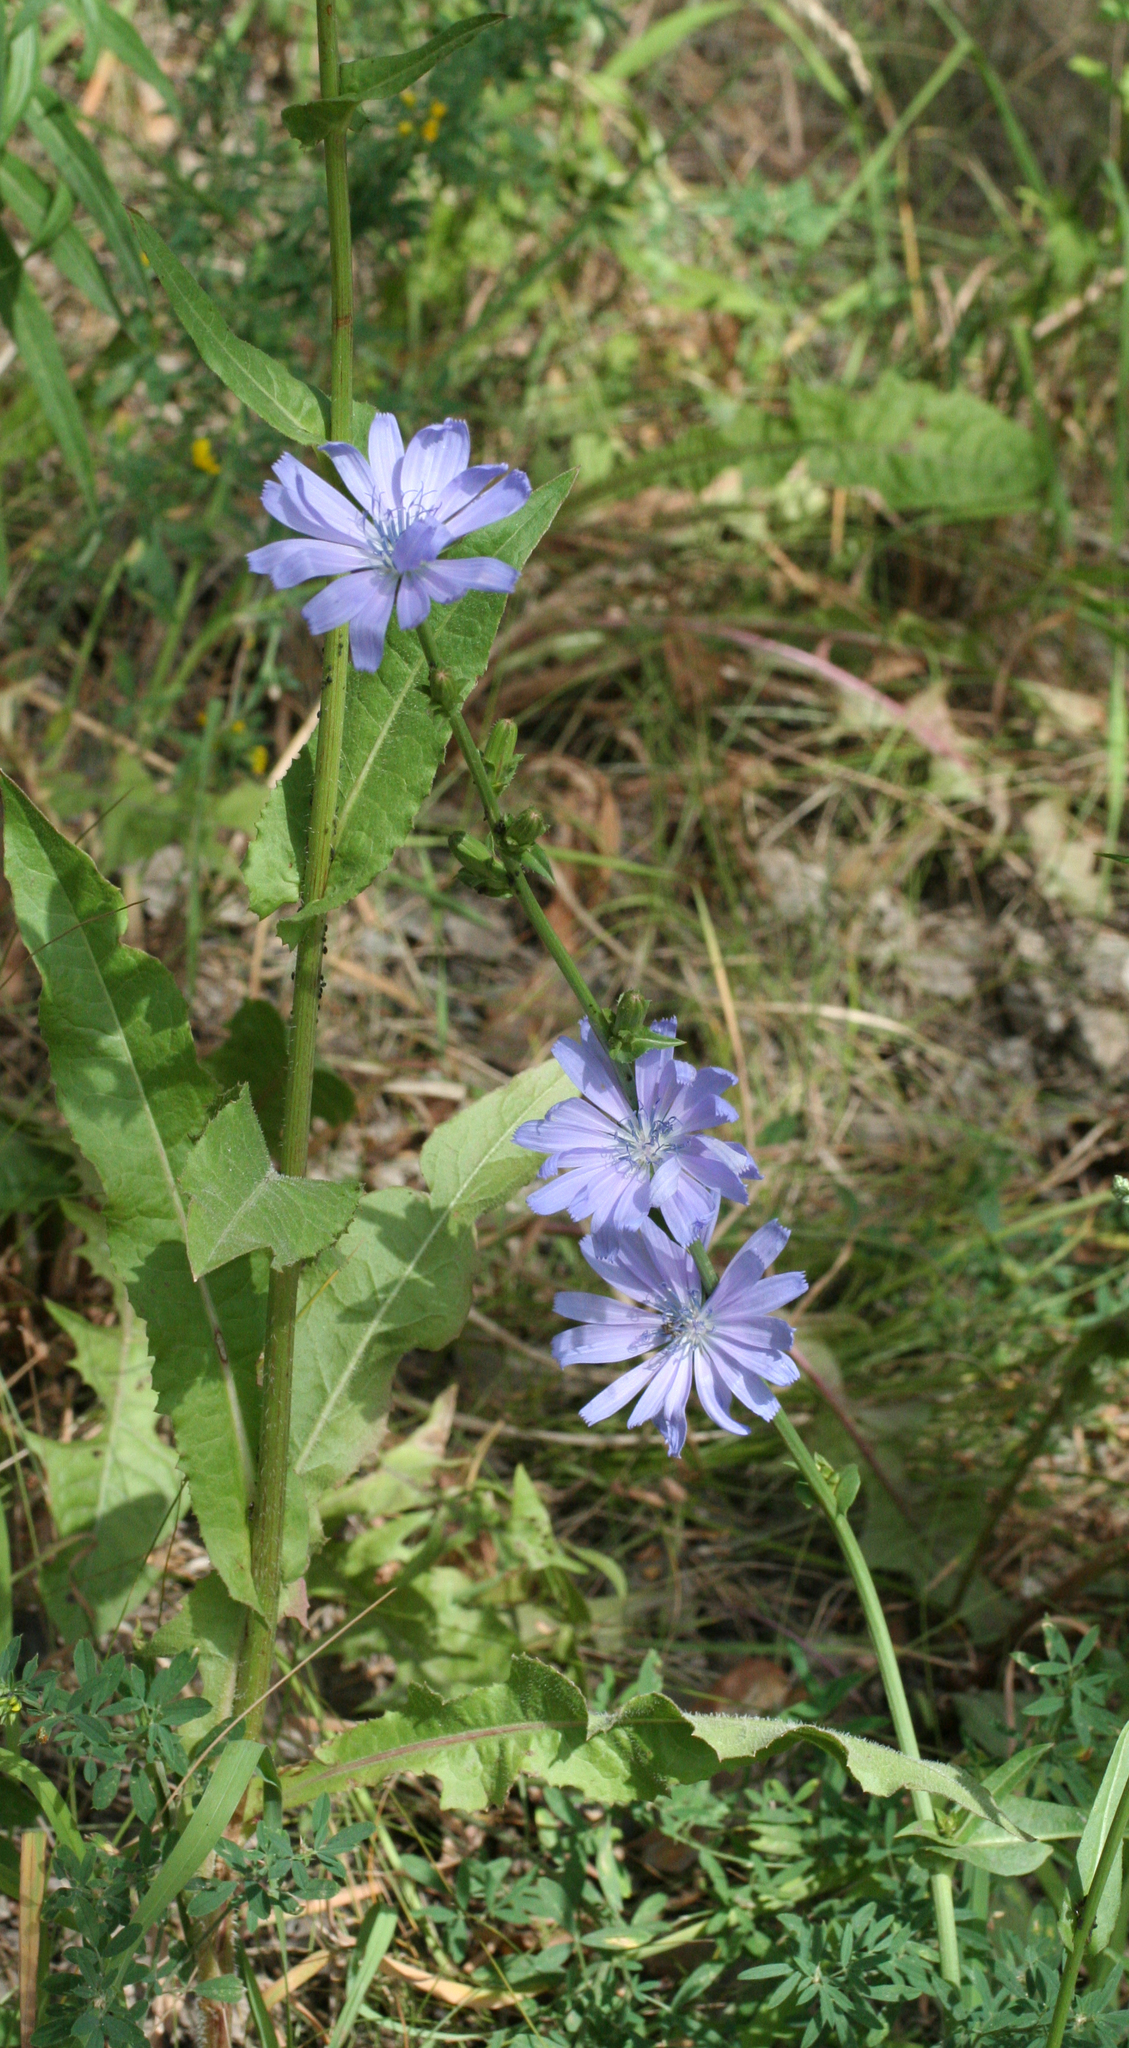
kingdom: Plantae
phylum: Tracheophyta
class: Magnoliopsida
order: Asterales
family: Asteraceae
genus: Cichorium
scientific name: Cichorium intybus
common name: Chicory
